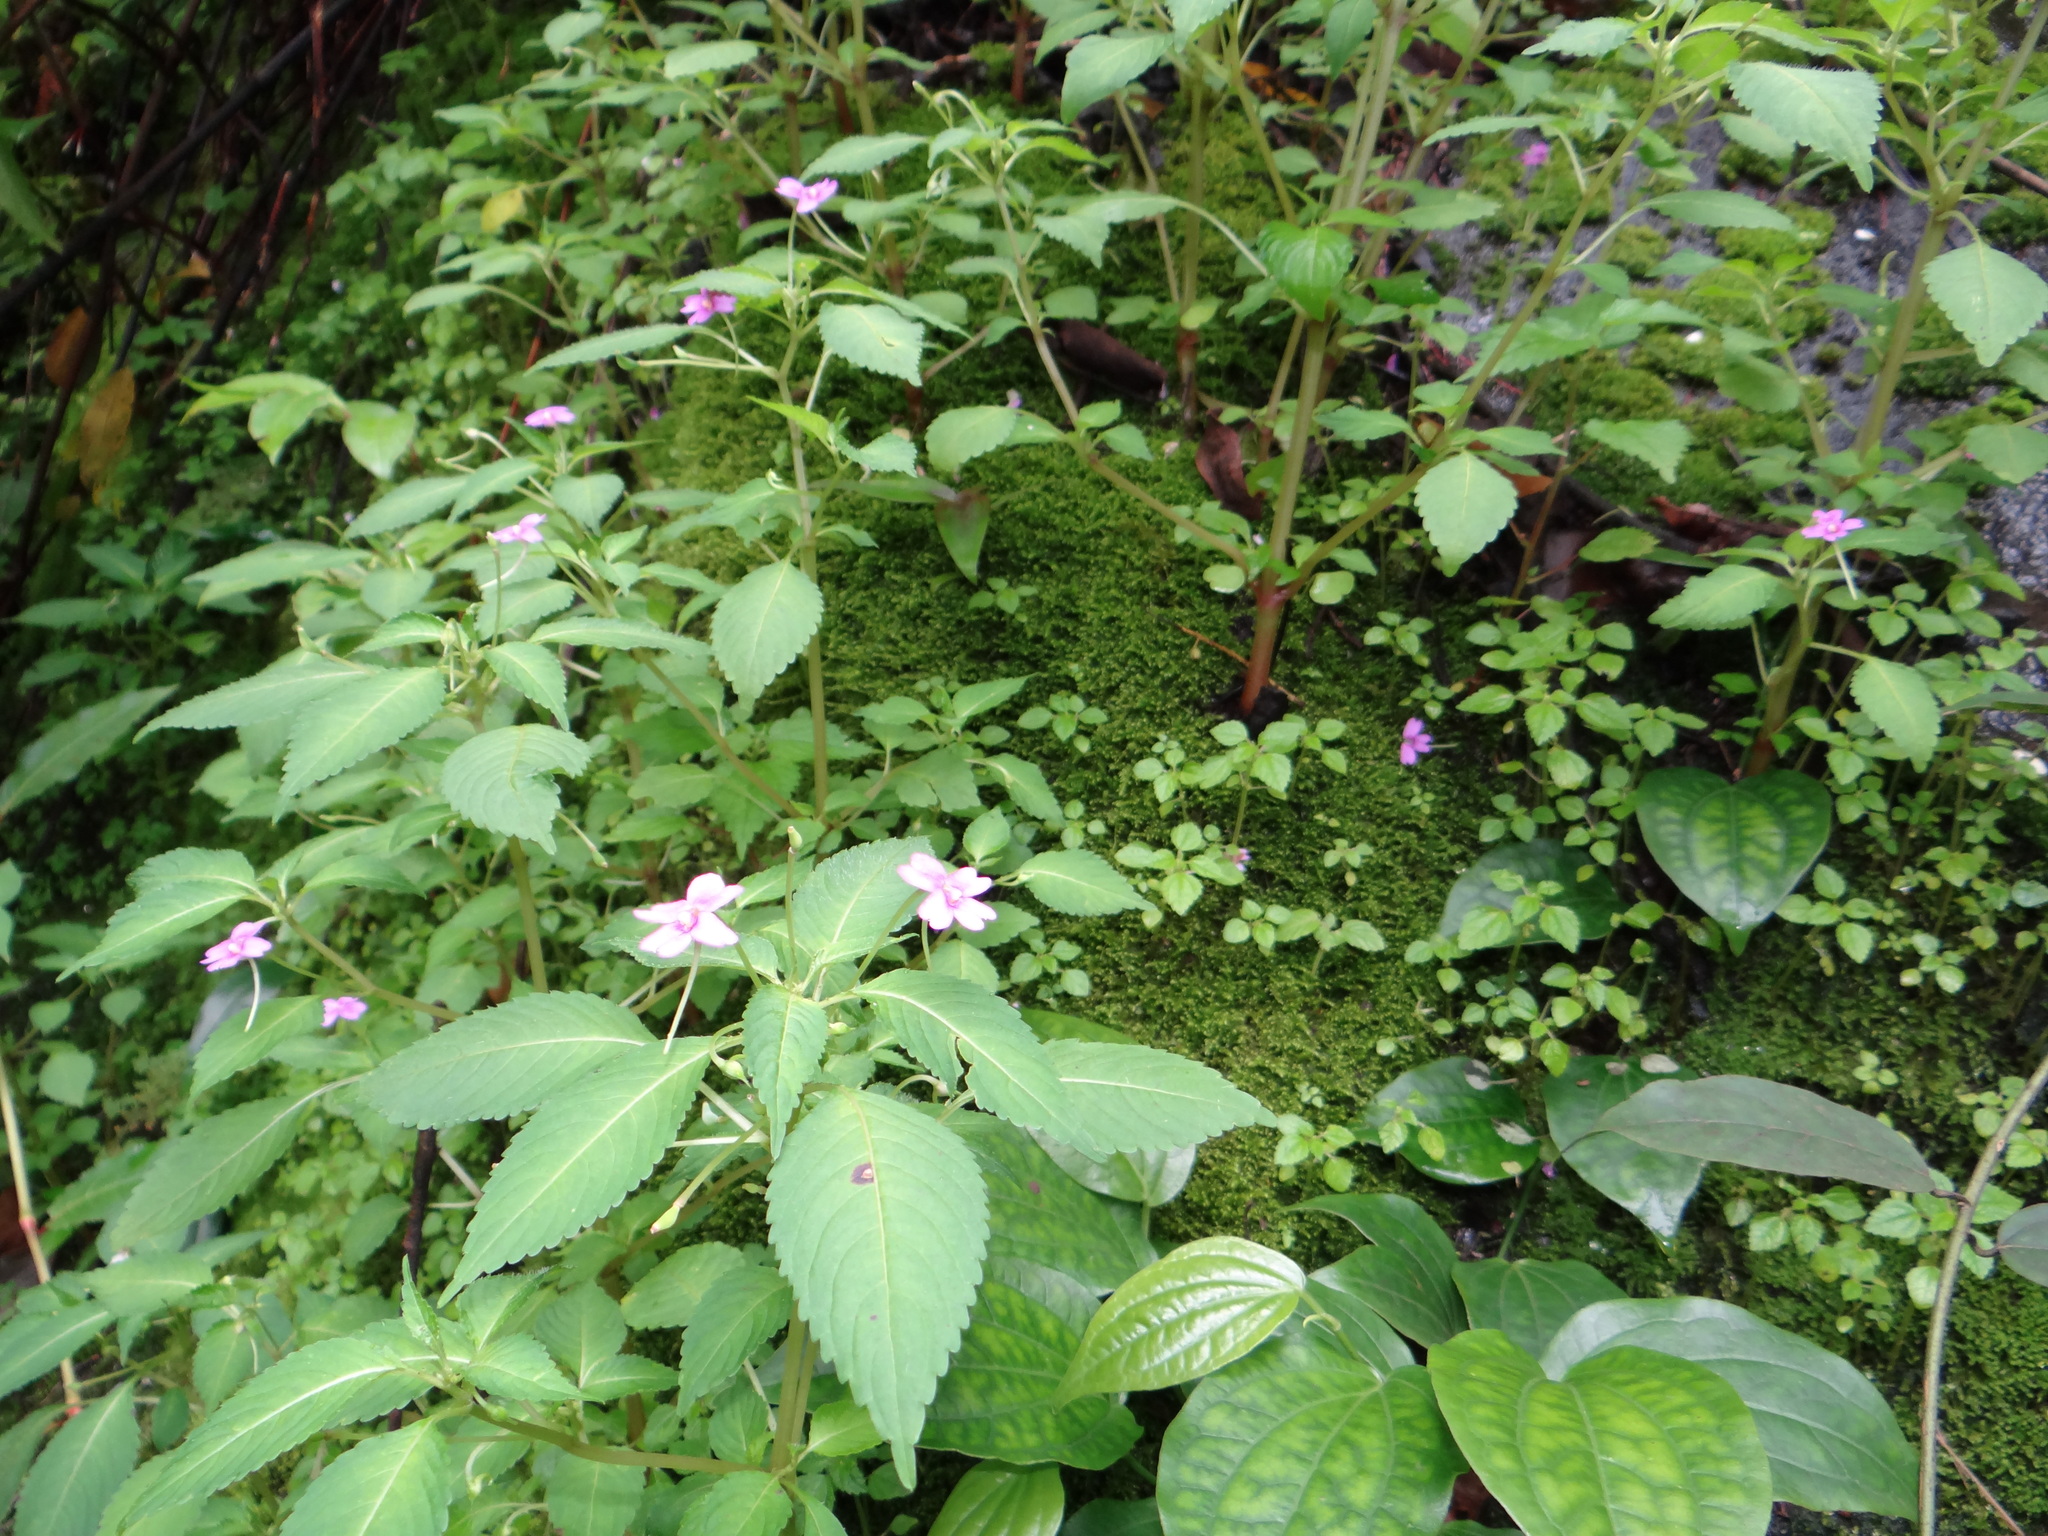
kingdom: Plantae
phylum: Tracheophyta
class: Magnoliopsida
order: Ericales
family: Balsaminaceae
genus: Impatiens
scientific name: Impatiens dasysperma
